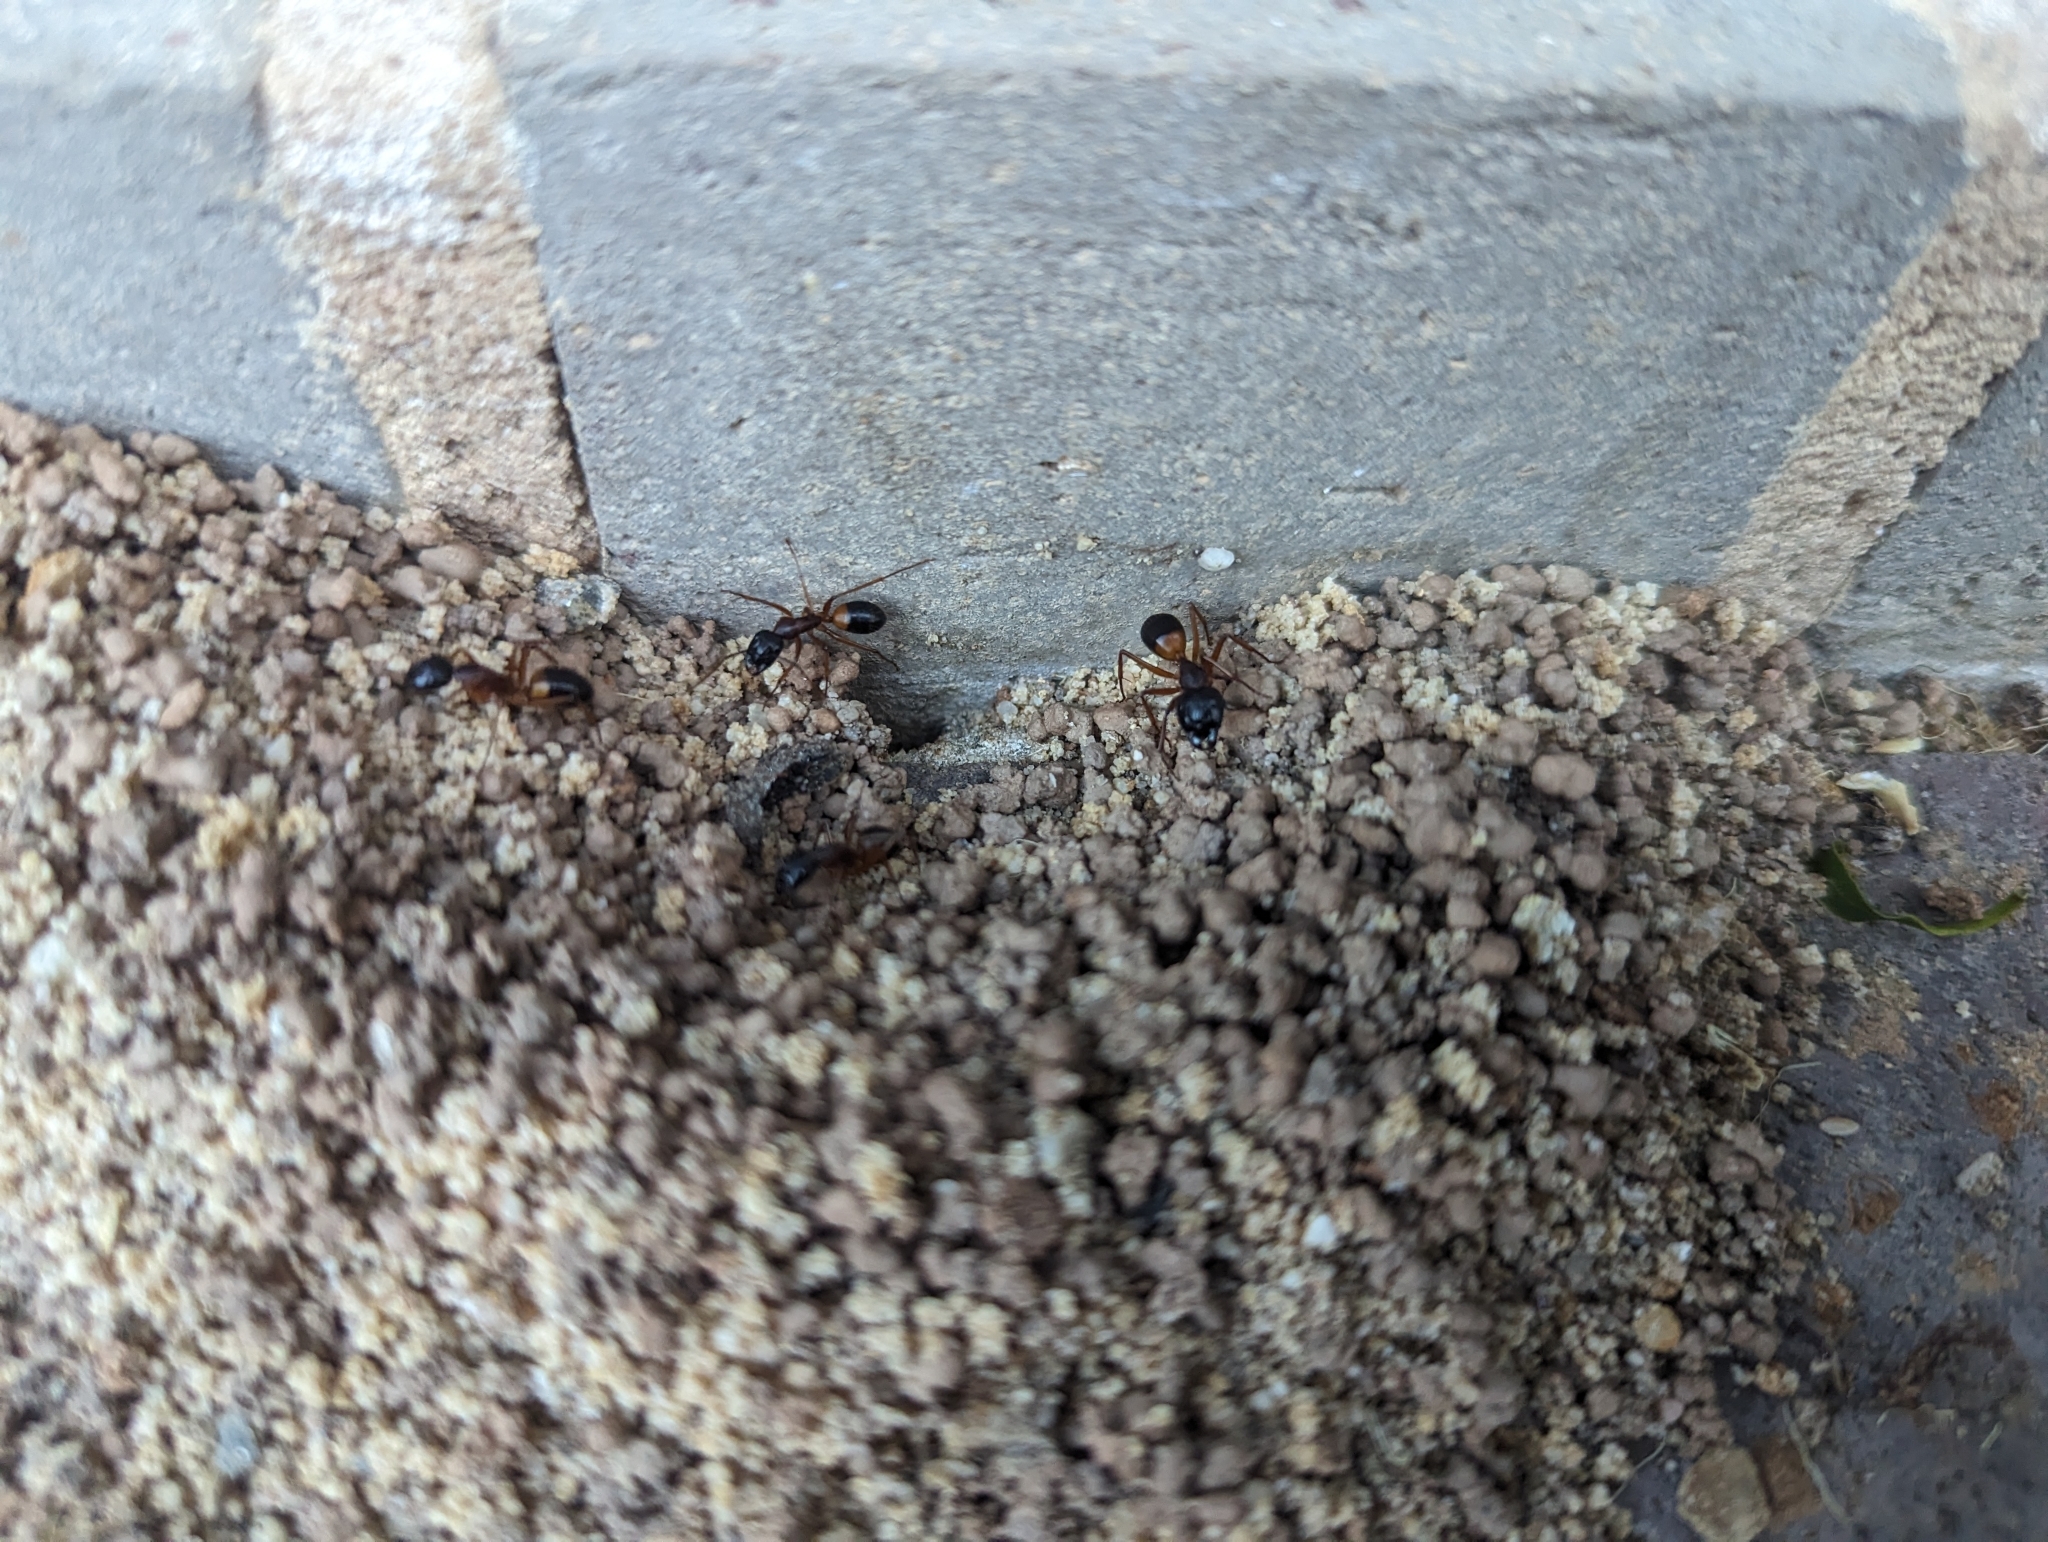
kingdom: Animalia
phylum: Arthropoda
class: Insecta
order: Hymenoptera
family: Formicidae
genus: Camponotus
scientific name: Camponotus consobrinus
